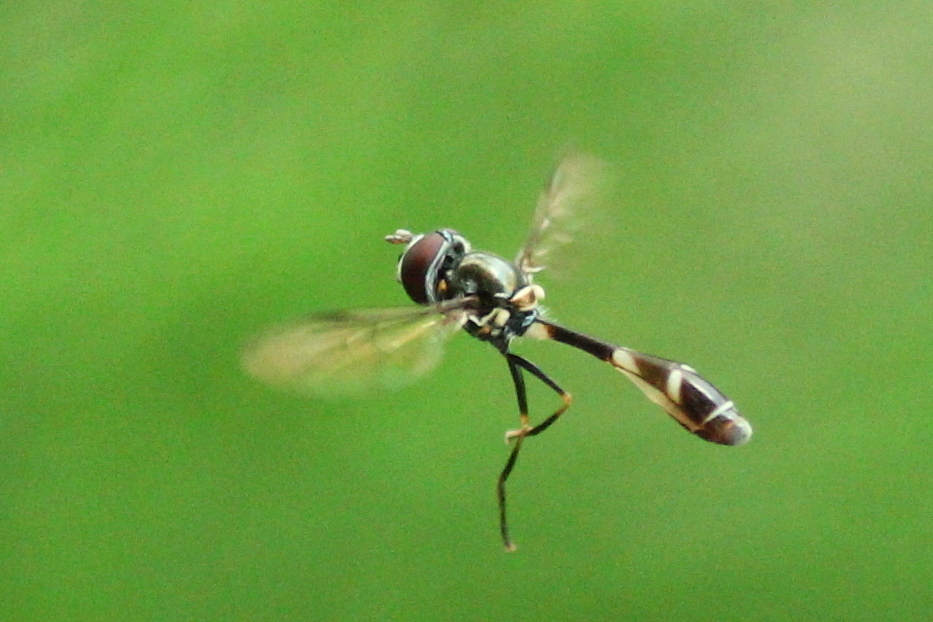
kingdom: Animalia
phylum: Arthropoda
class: Insecta
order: Diptera
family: Syrphidae
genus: Dioprosopa
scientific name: Dioprosopa clavatus
